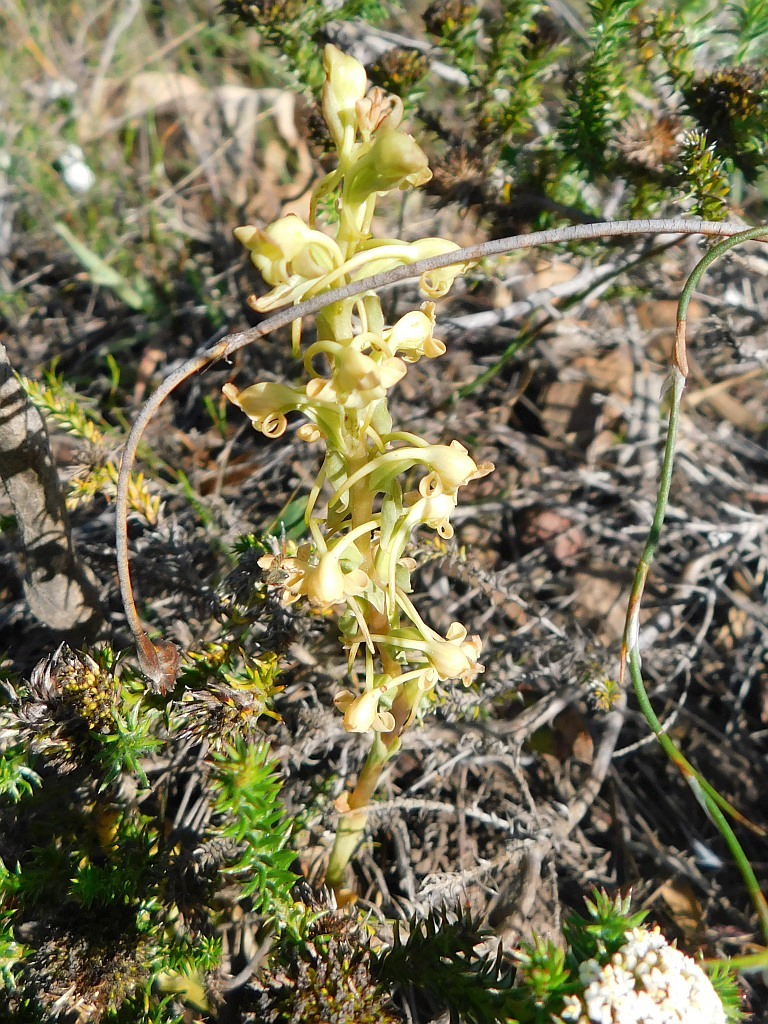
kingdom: Plantae
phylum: Tracheophyta
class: Liliopsida
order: Asparagales
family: Orchidaceae
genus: Satyrium
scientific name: Satyrium humile
